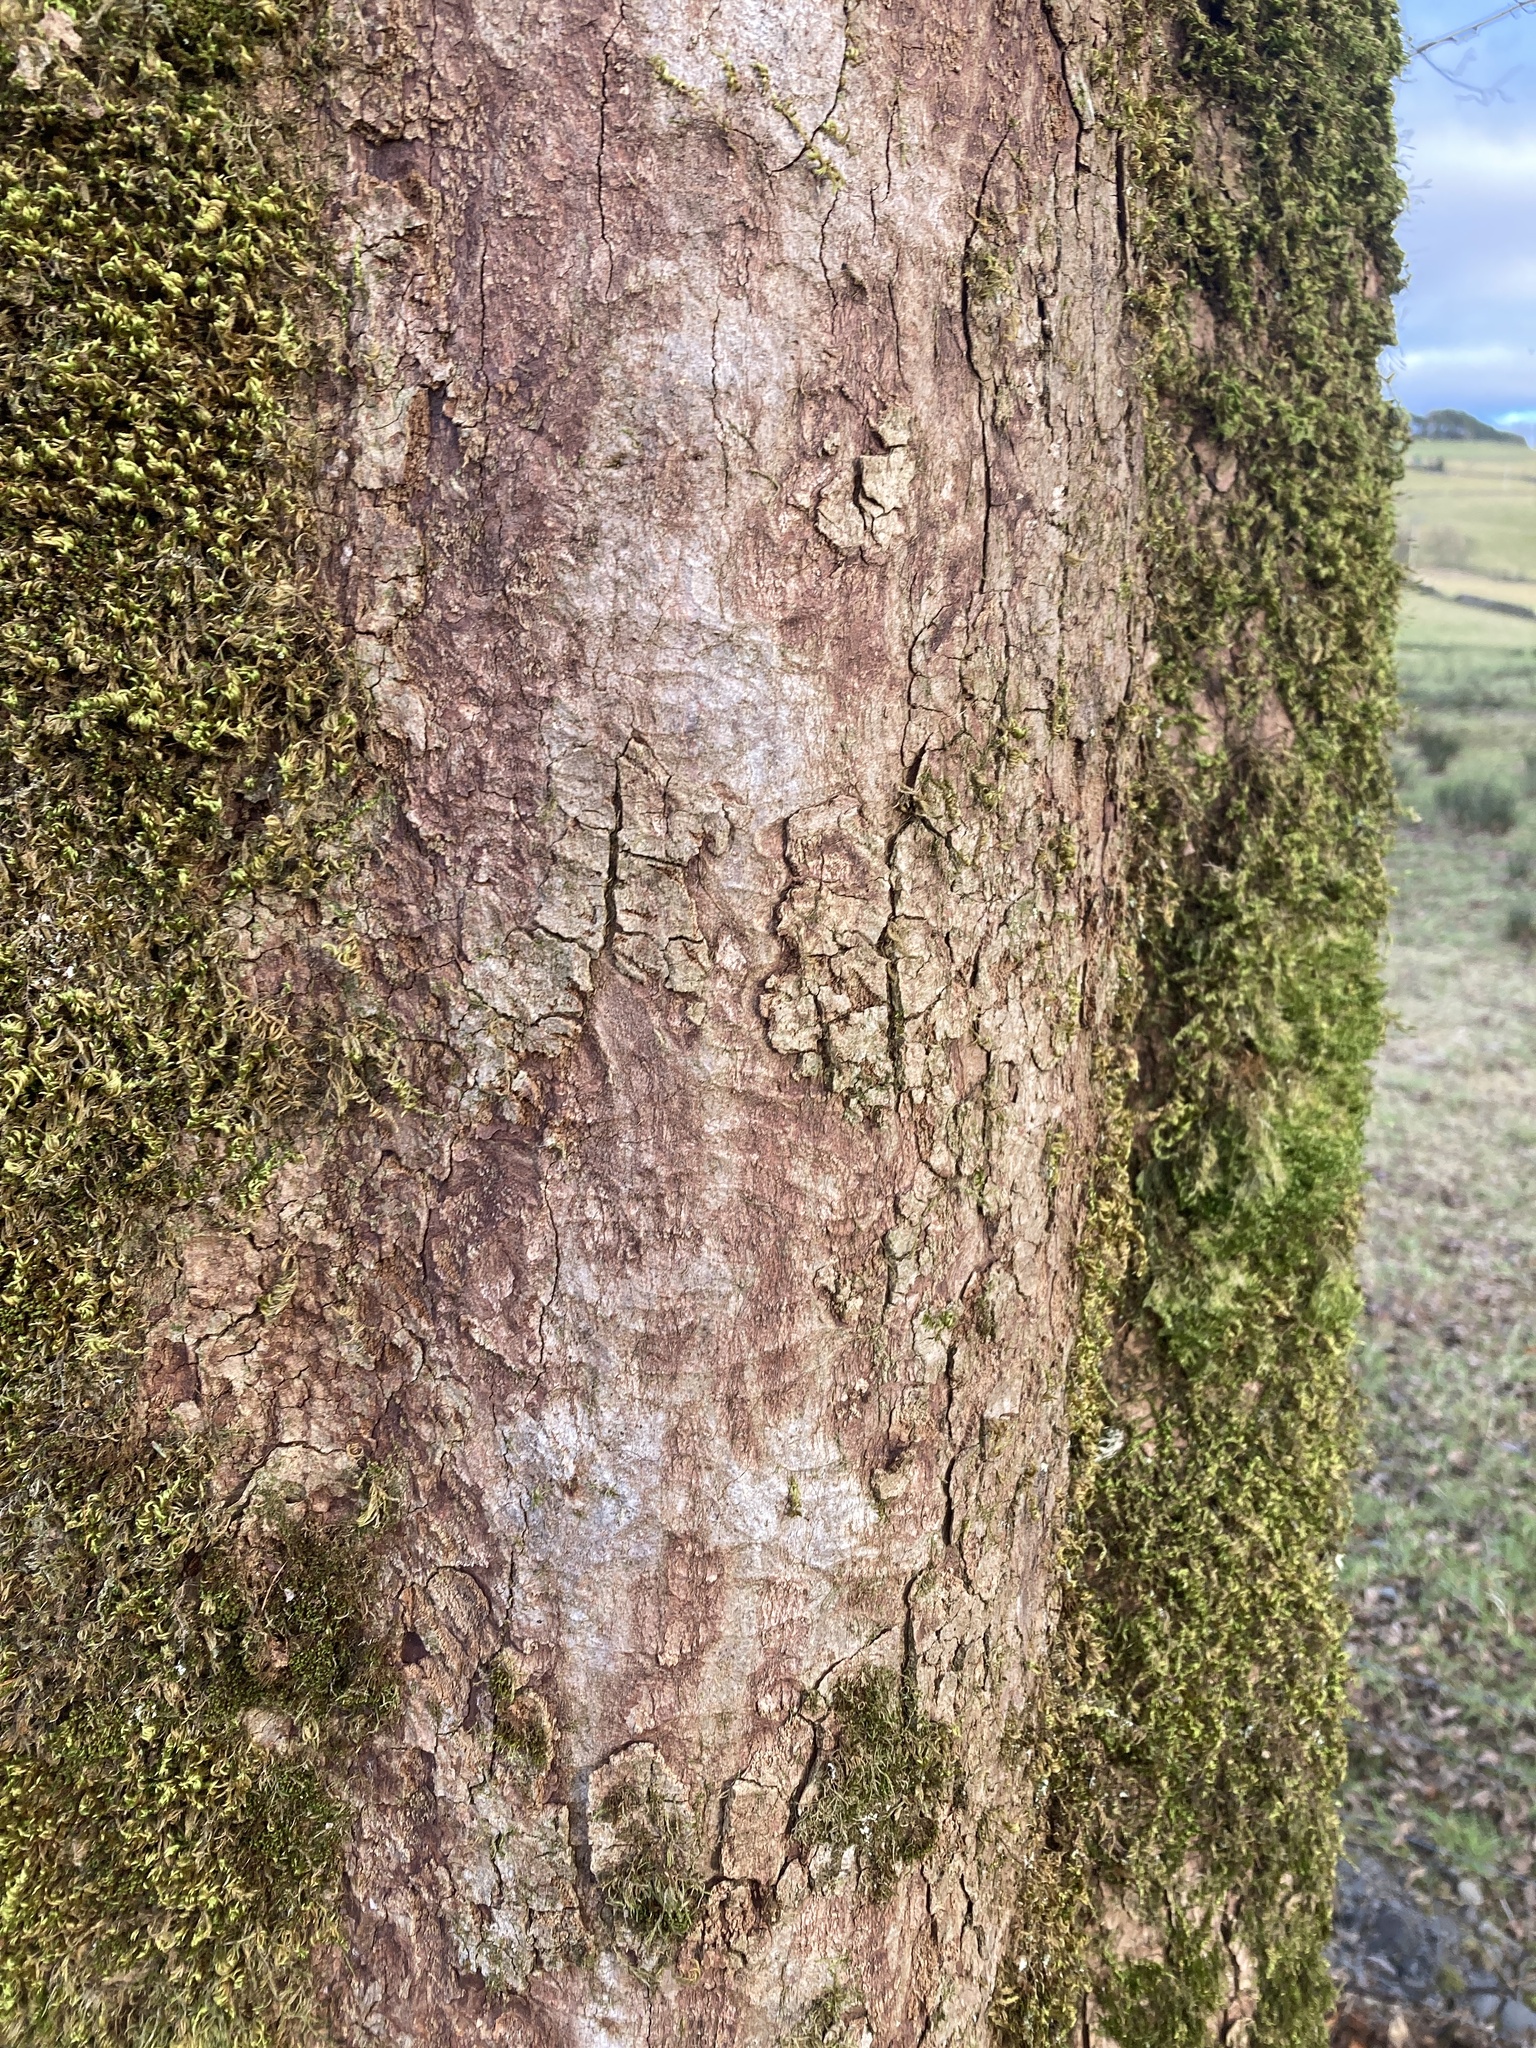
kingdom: Plantae
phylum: Tracheophyta
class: Magnoliopsida
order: Sapindales
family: Sapindaceae
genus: Acer
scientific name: Acer pseudoplatanus
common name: Sycamore
